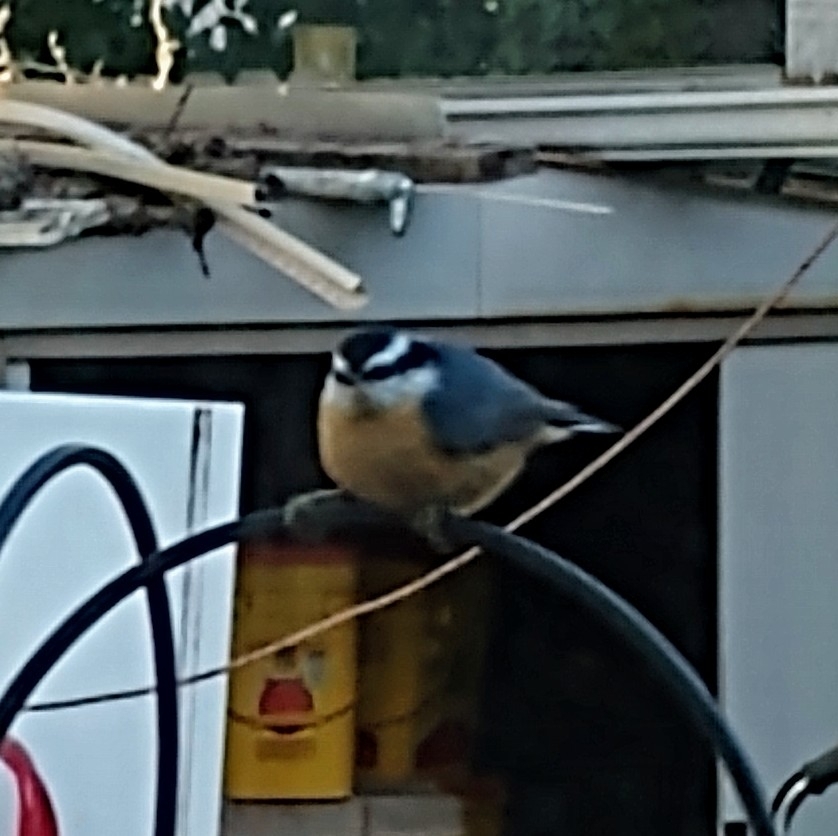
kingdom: Animalia
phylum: Chordata
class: Aves
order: Passeriformes
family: Sittidae
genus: Sitta
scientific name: Sitta canadensis
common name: Red-breasted nuthatch
